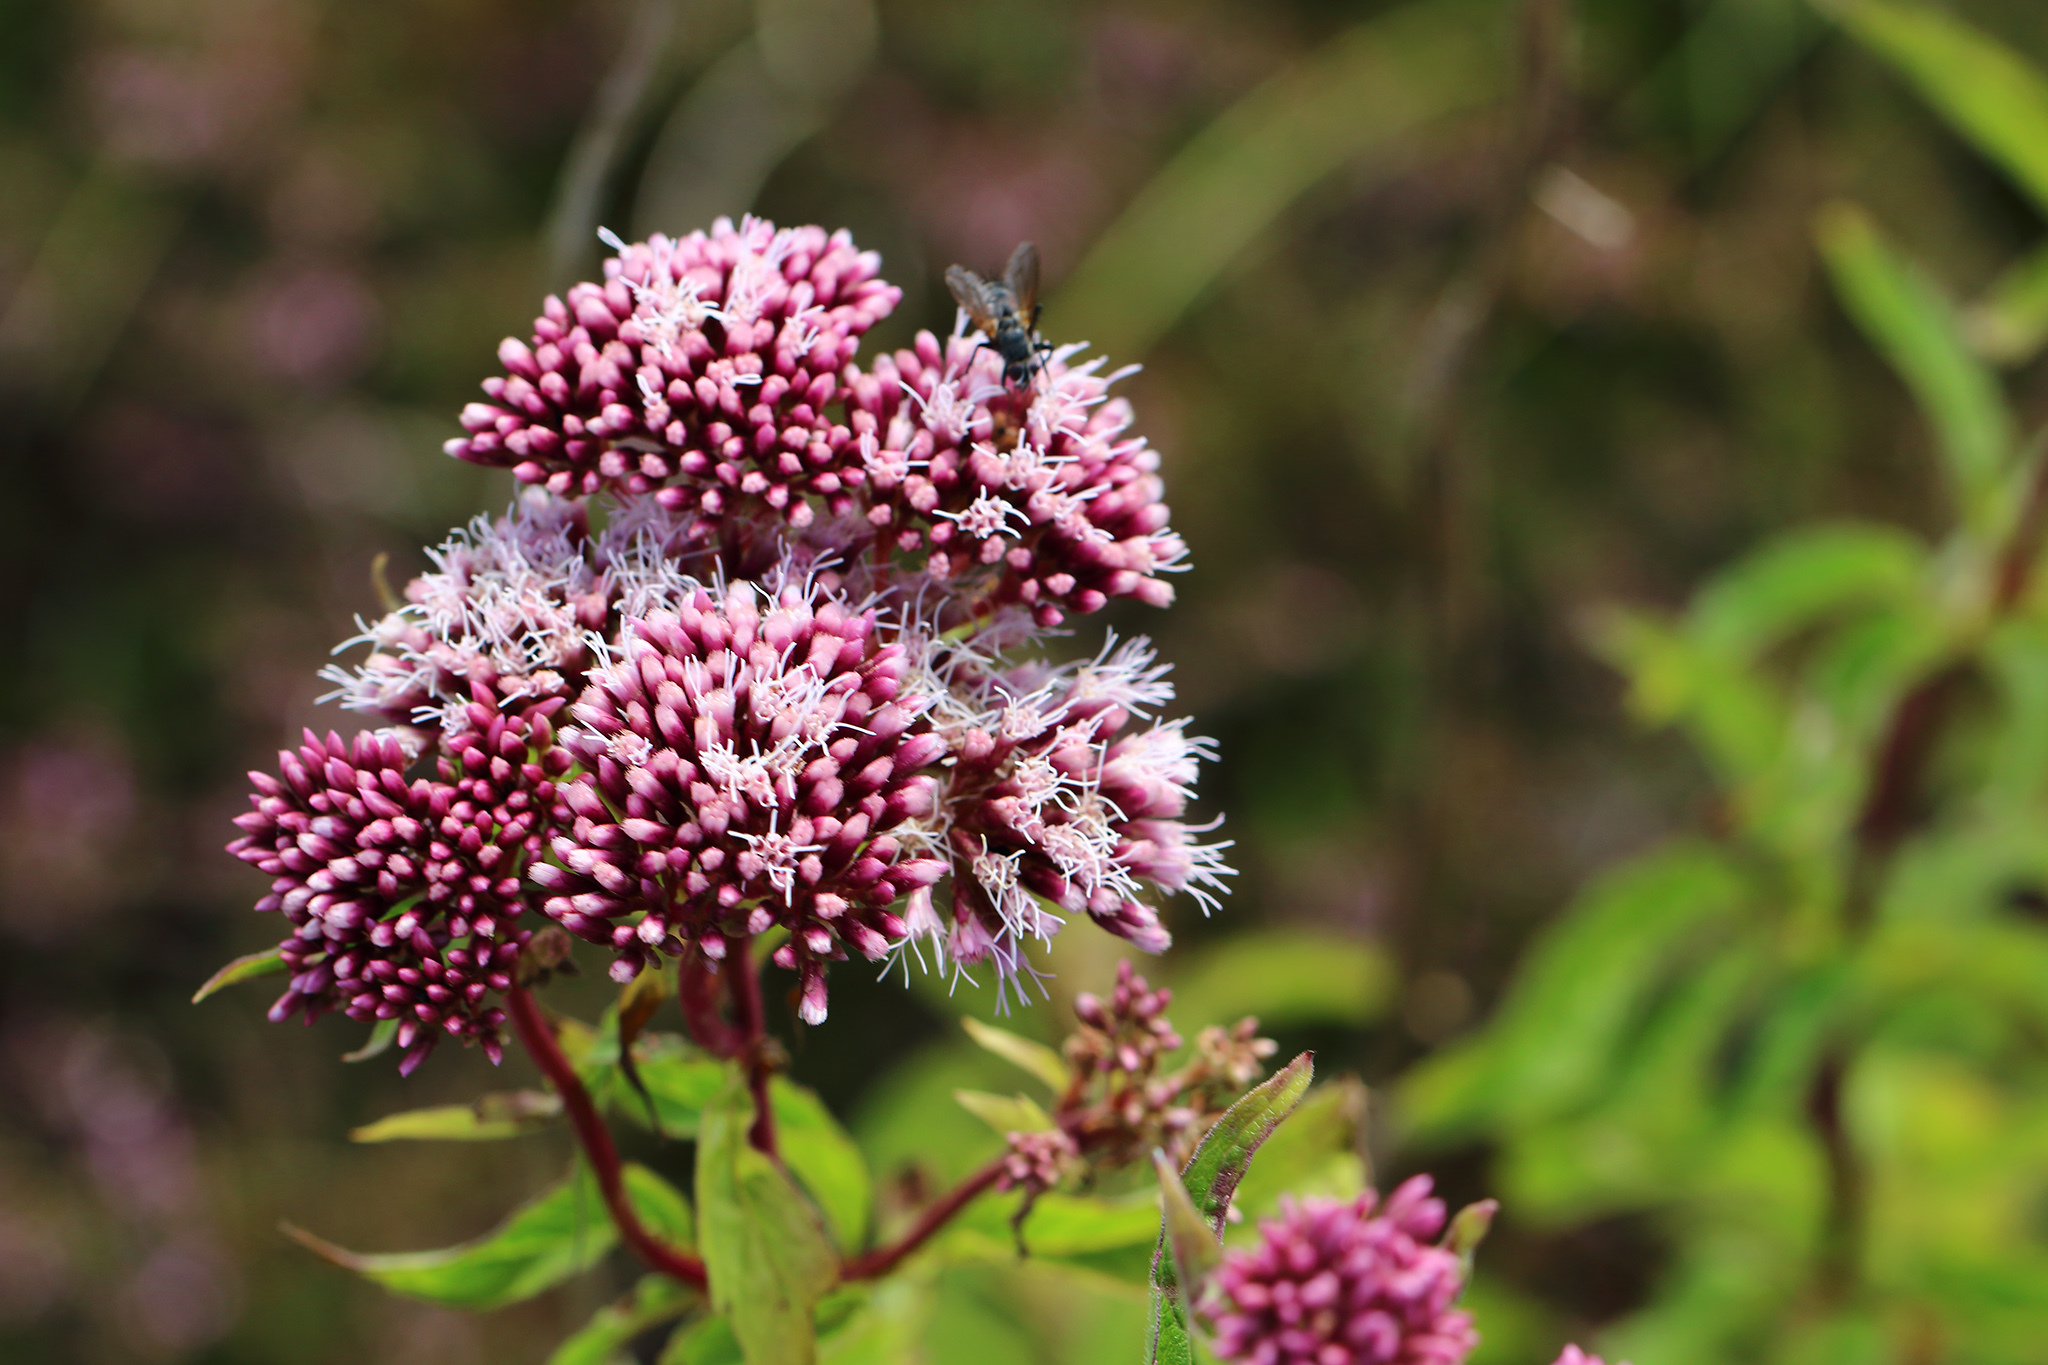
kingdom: Plantae
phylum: Tracheophyta
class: Magnoliopsida
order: Asterales
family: Asteraceae
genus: Eupatorium
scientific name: Eupatorium cannabinum
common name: Hemp-agrimony
